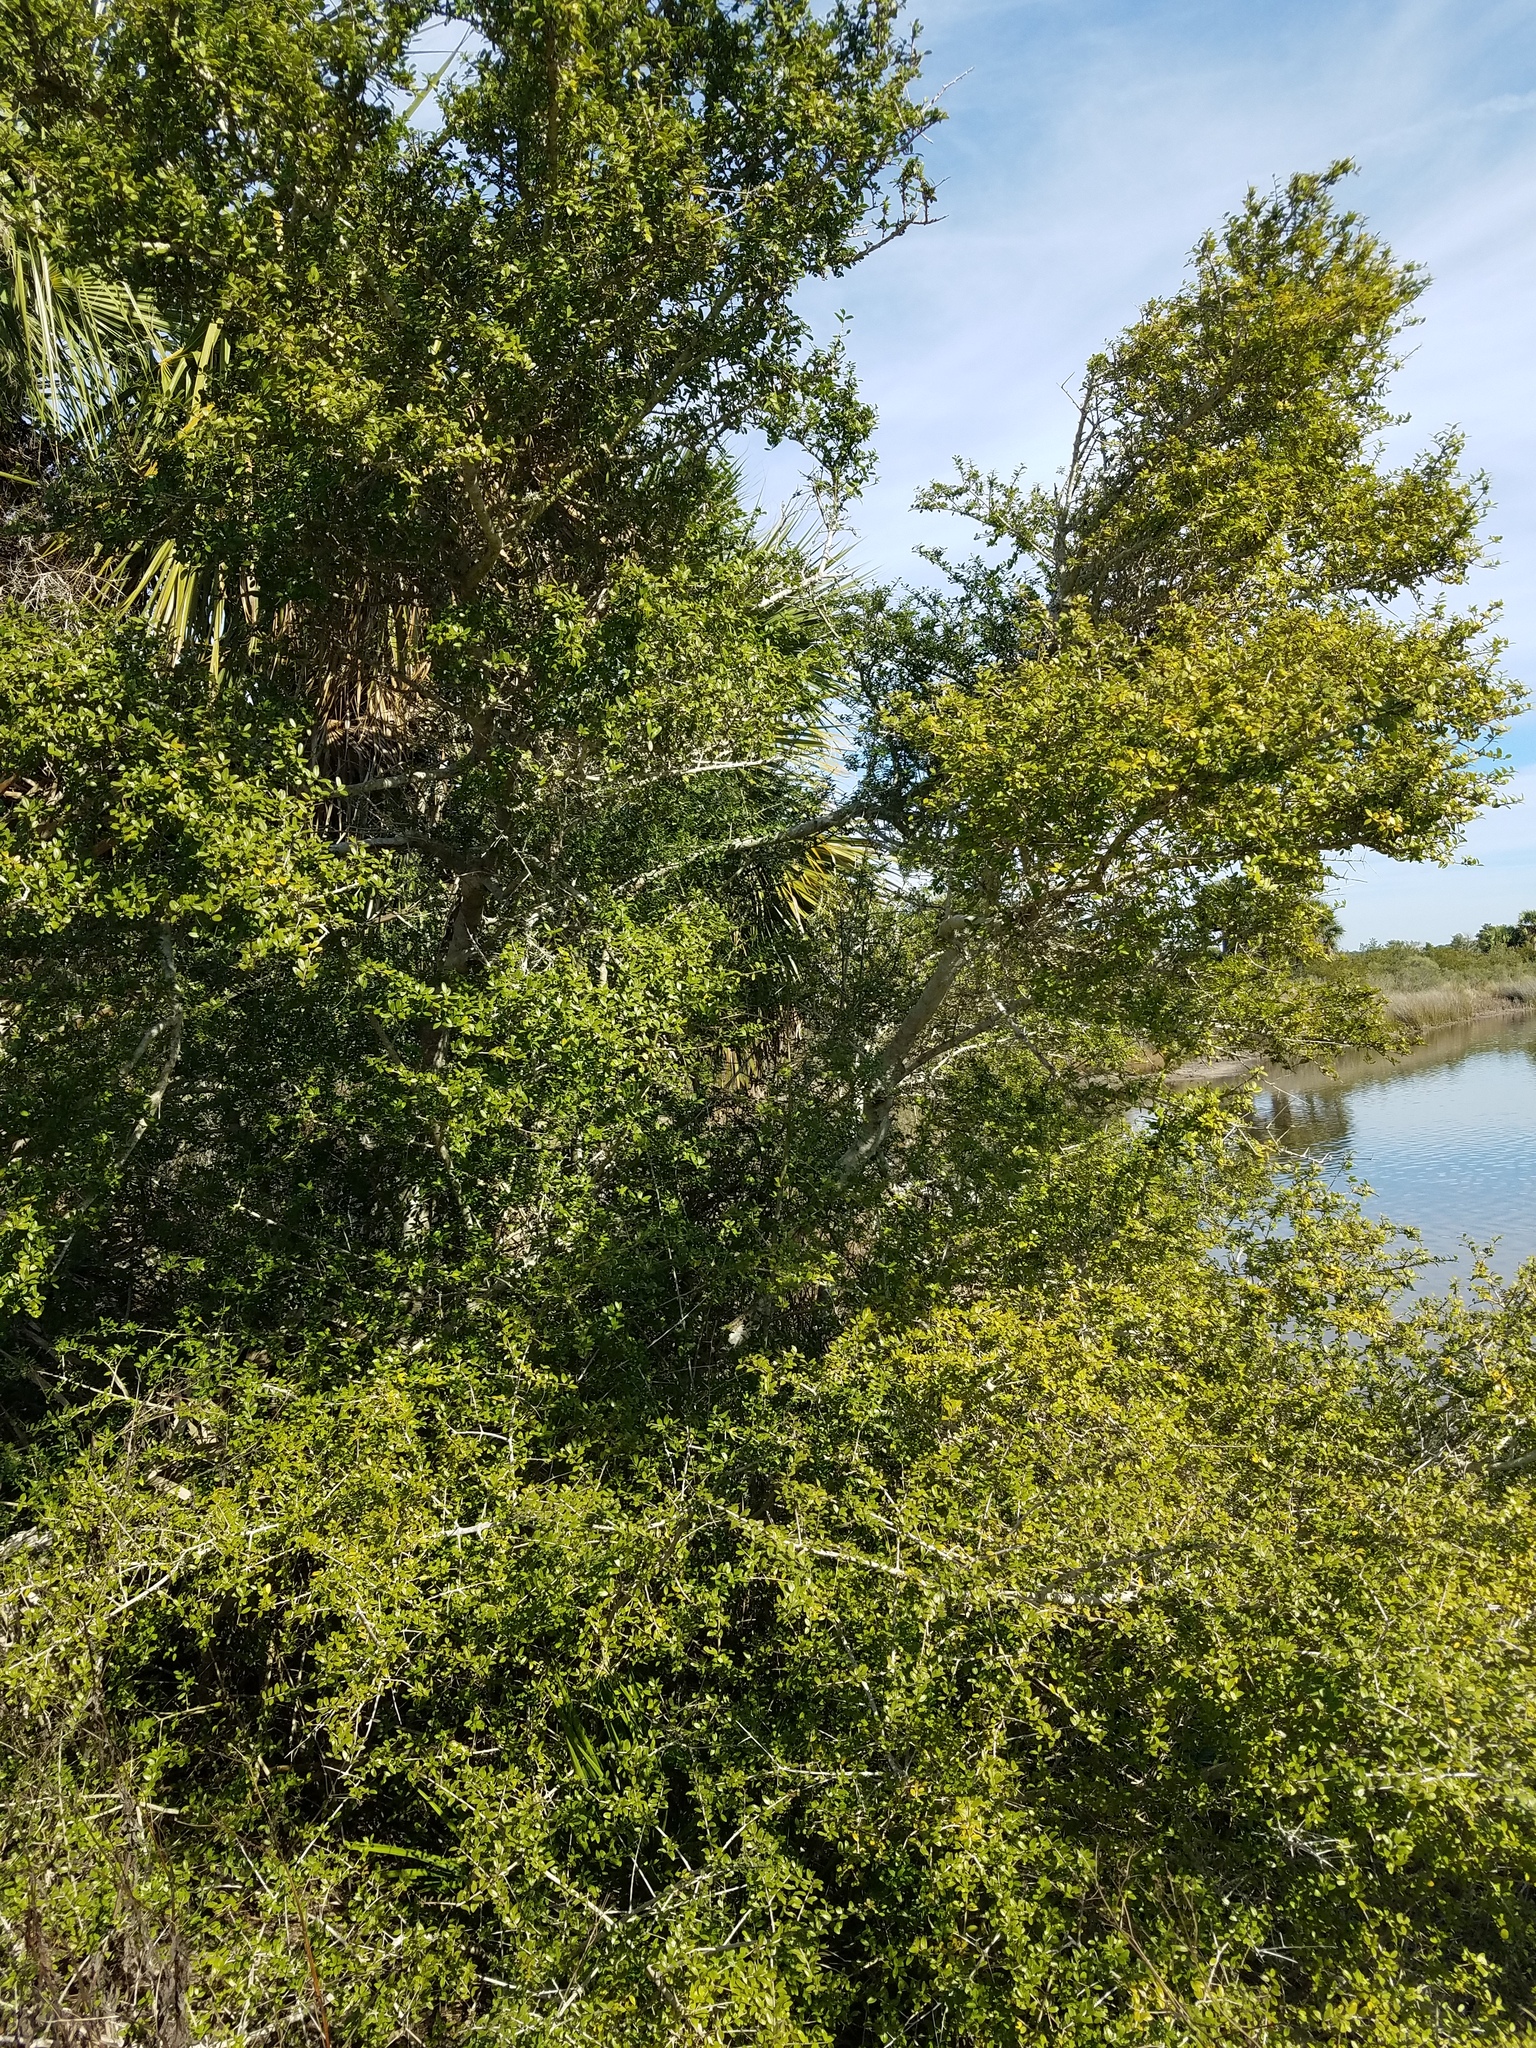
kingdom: Plantae
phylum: Tracheophyta
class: Magnoliopsida
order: Aquifoliales
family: Aquifoliaceae
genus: Ilex
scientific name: Ilex vomitoria
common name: Yaupon holly
